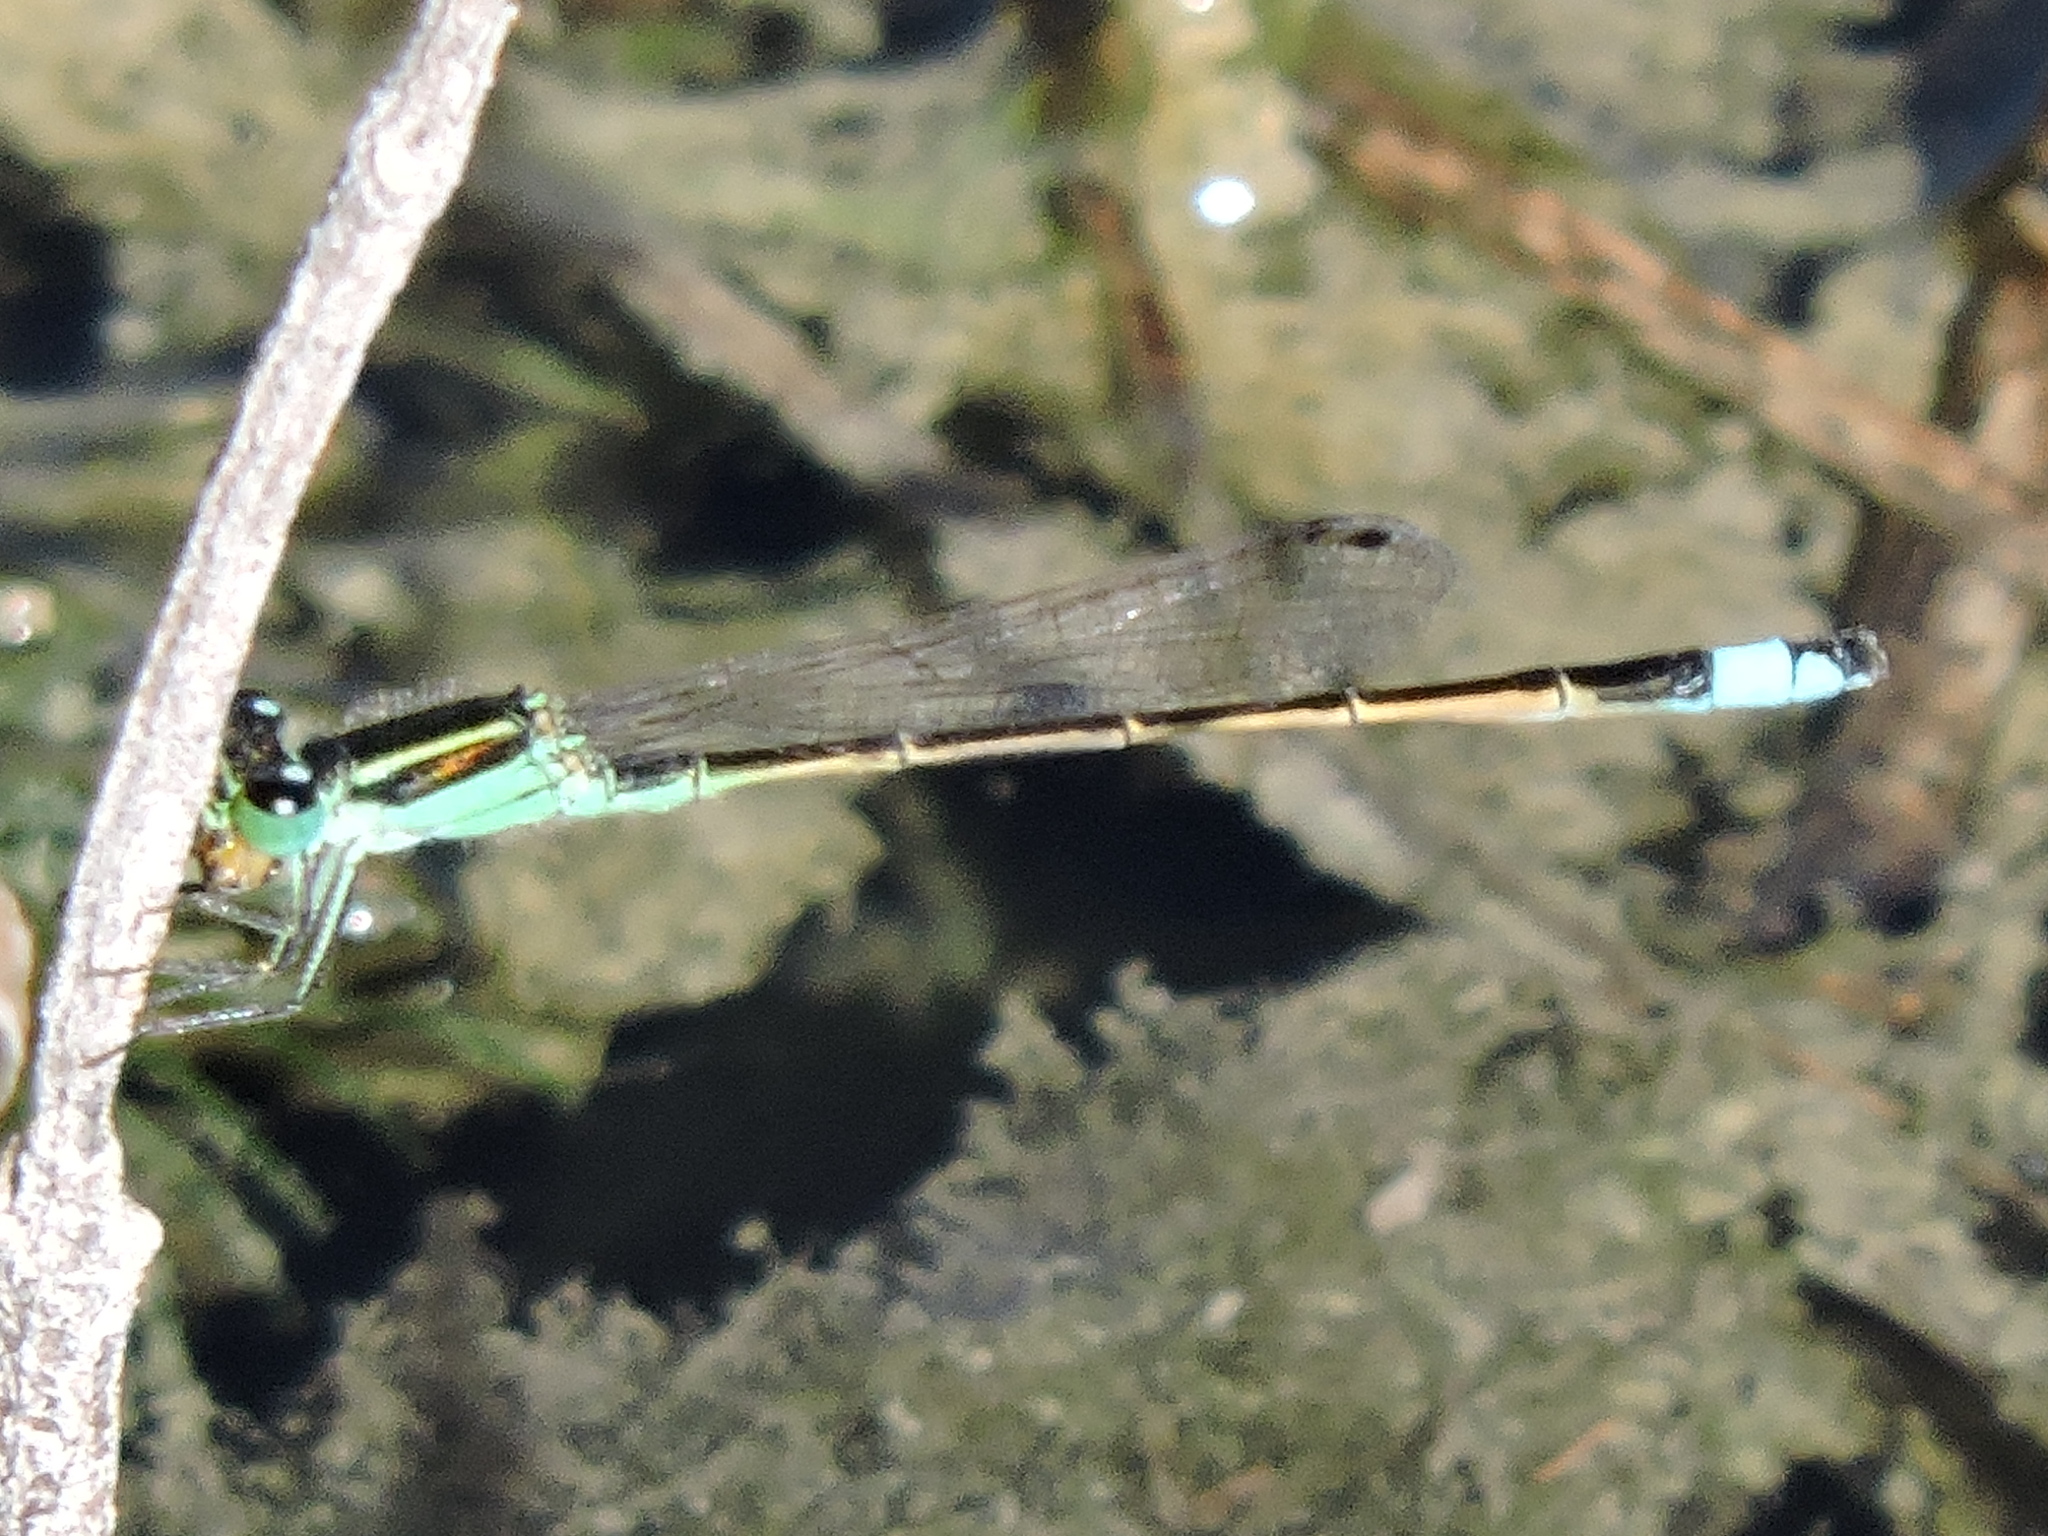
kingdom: Animalia
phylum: Arthropoda
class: Insecta
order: Odonata
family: Coenagrionidae
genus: Ischnura
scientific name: Ischnura ramburii
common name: Rambur's forktail
